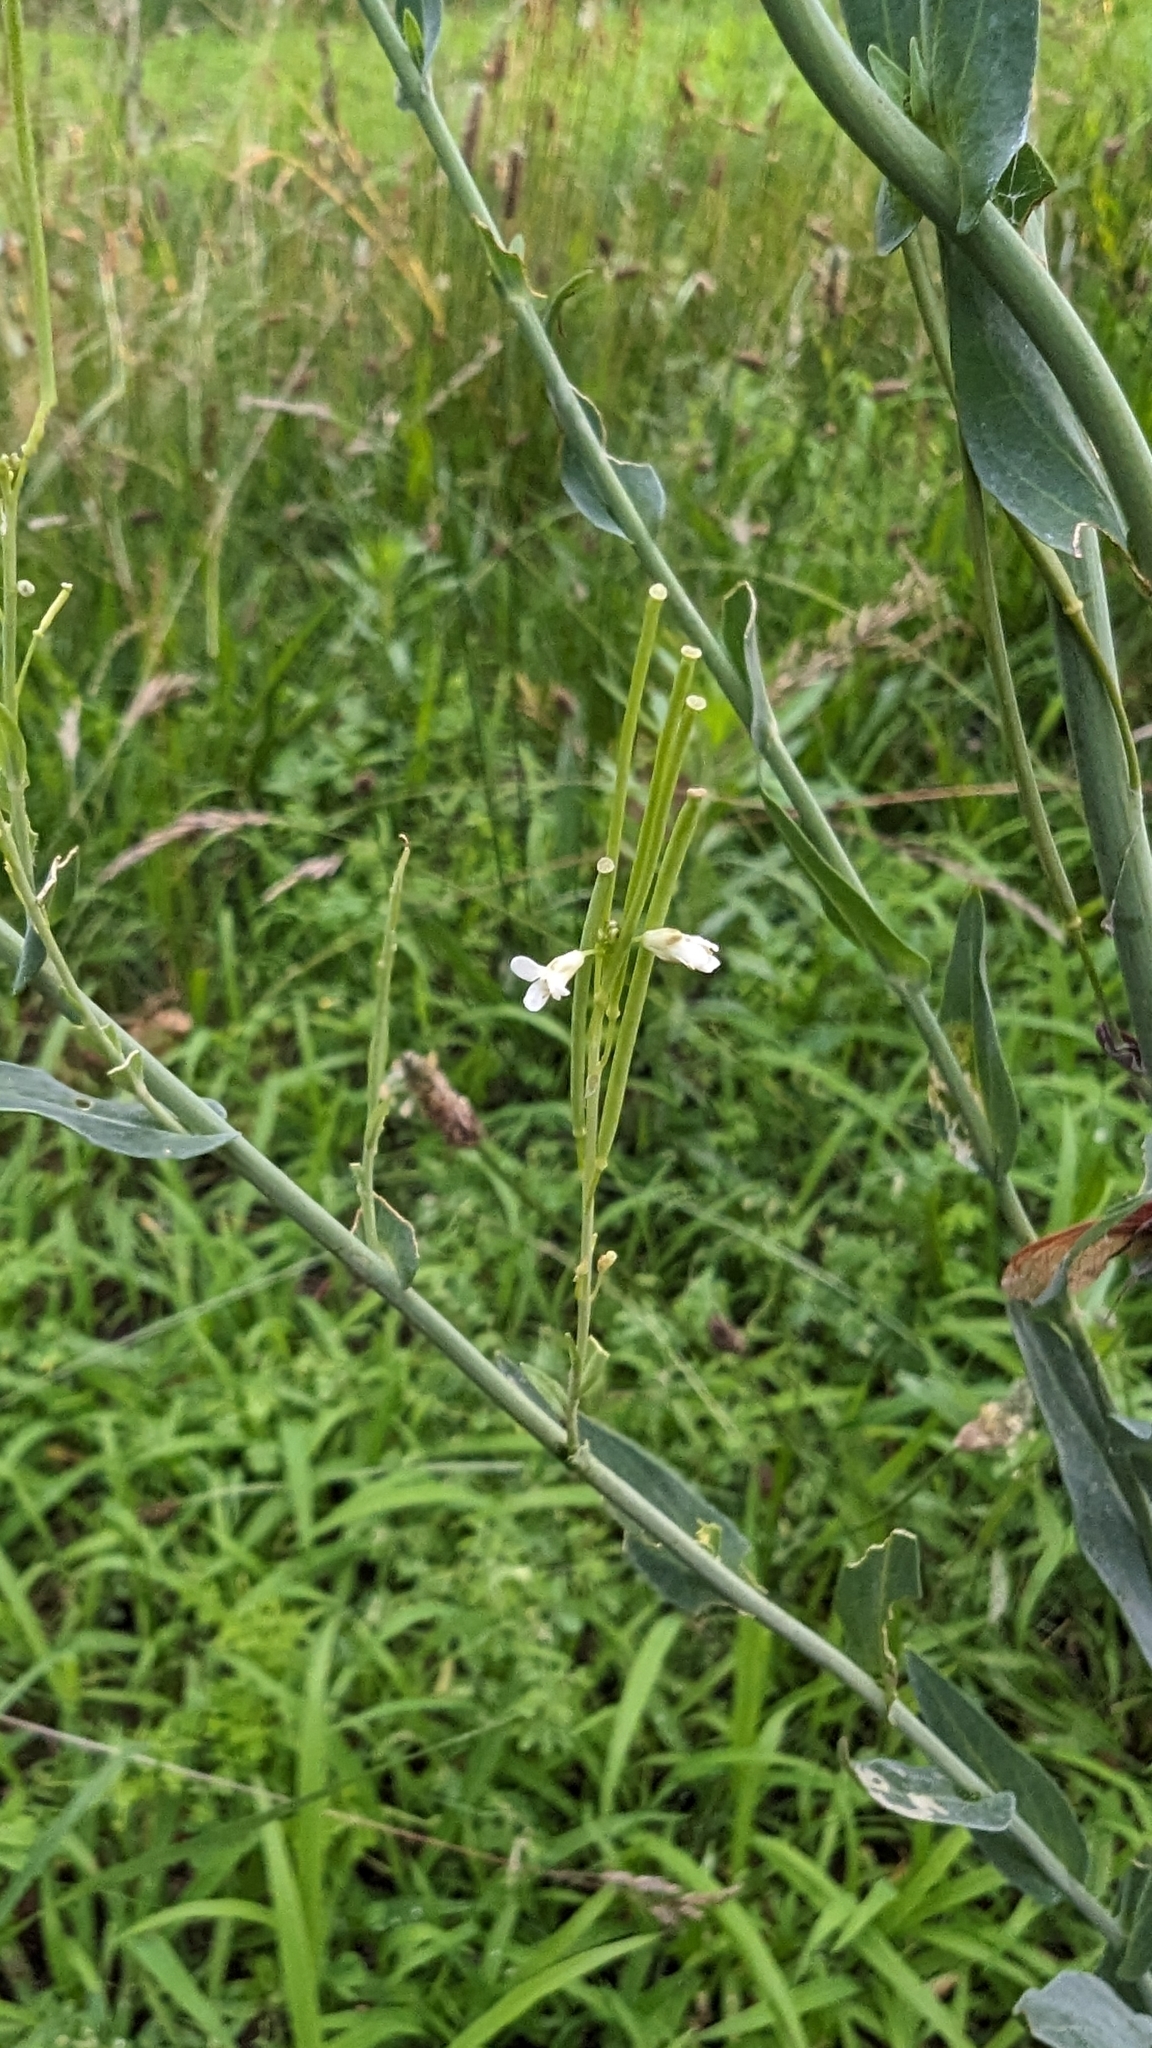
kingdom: Plantae
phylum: Tracheophyta
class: Magnoliopsida
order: Brassicales
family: Brassicaceae
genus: Turritis
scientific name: Turritis glabra
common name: Tower rockcress
